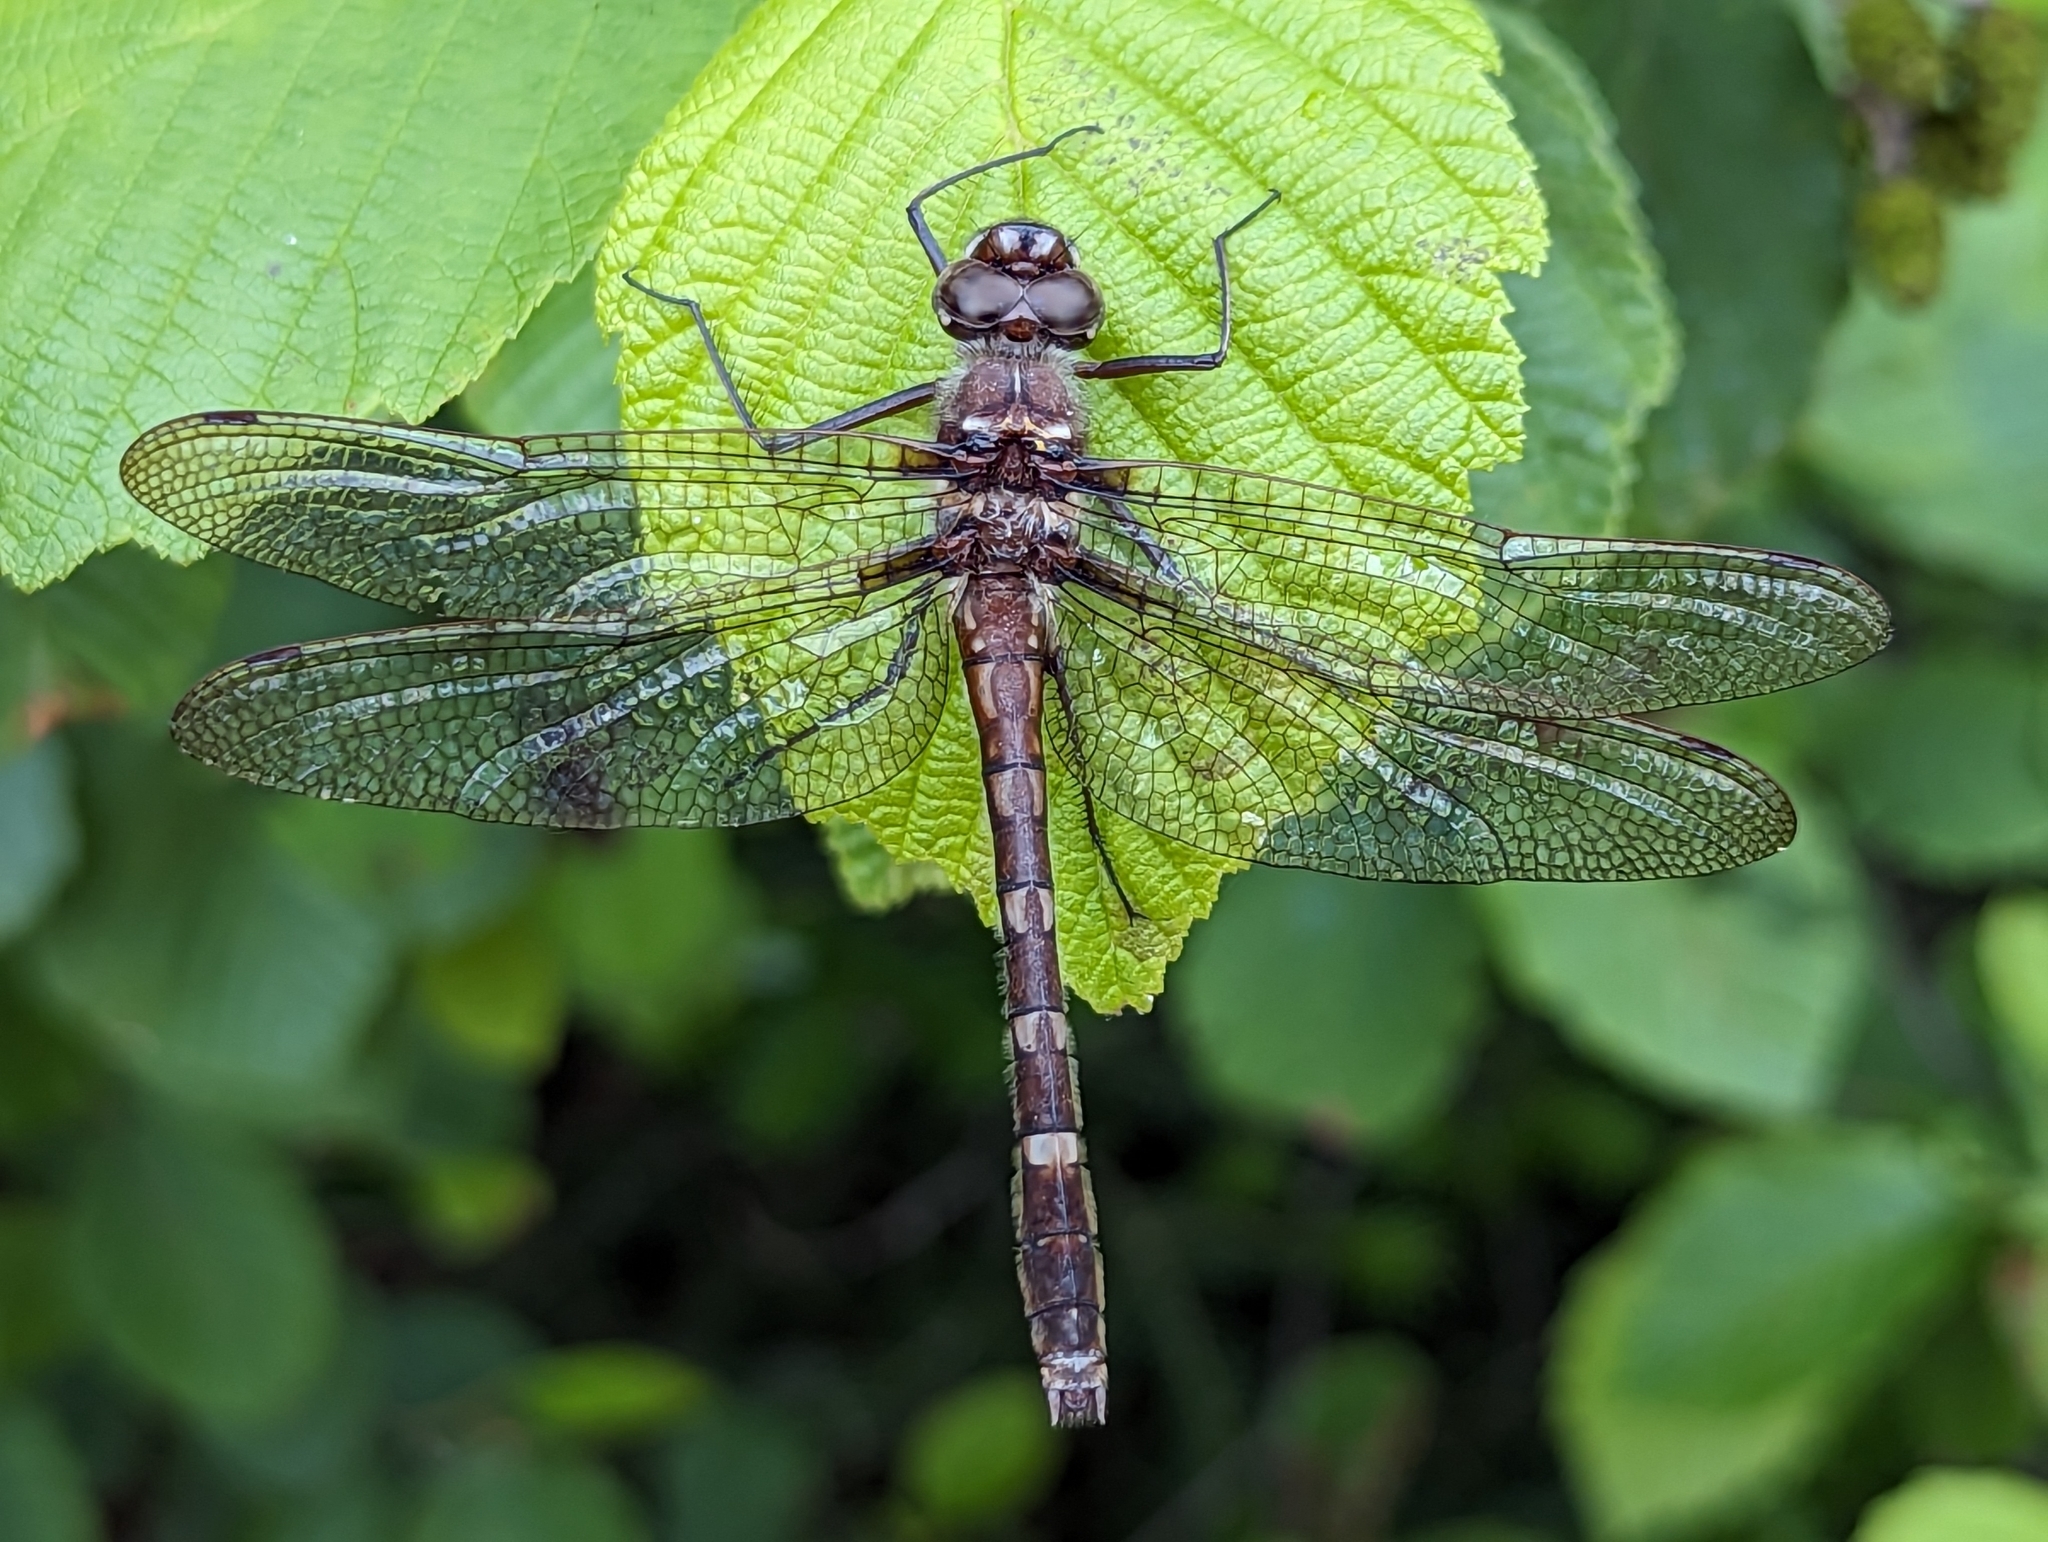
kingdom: Animalia
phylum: Arthropoda
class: Insecta
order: Odonata
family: Macromiidae
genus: Didymops
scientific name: Didymops transversa
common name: Stream cruiser
